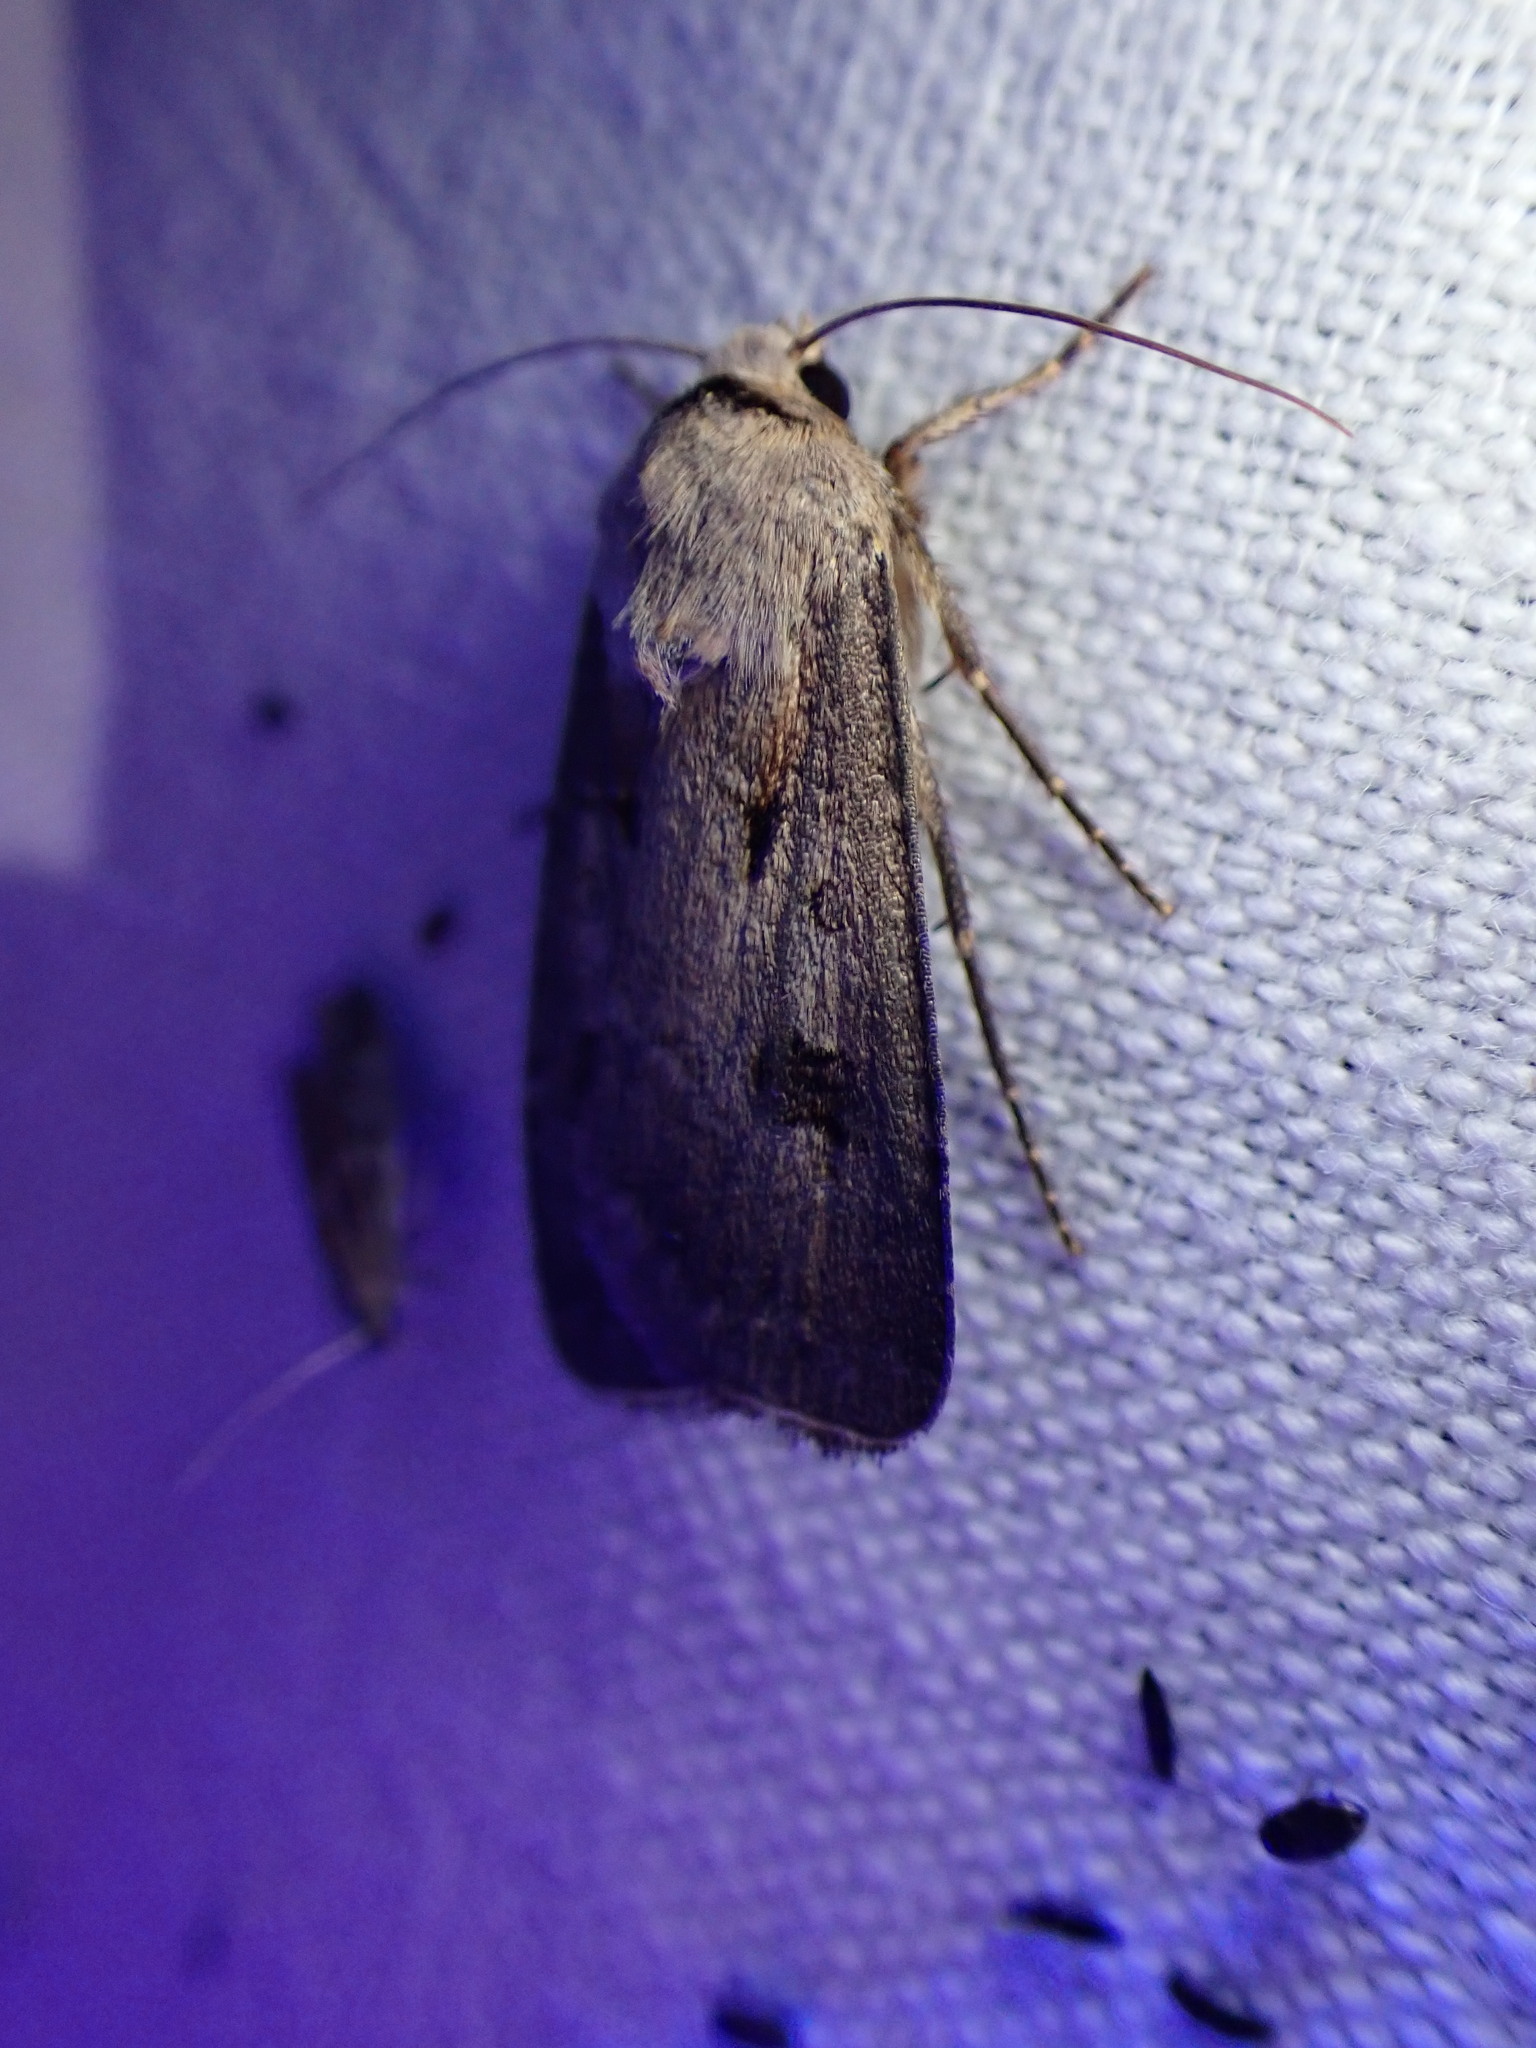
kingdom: Animalia
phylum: Arthropoda
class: Insecta
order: Lepidoptera
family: Noctuidae
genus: Agrotis
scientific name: Agrotis exclamationis
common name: Heart and dart
